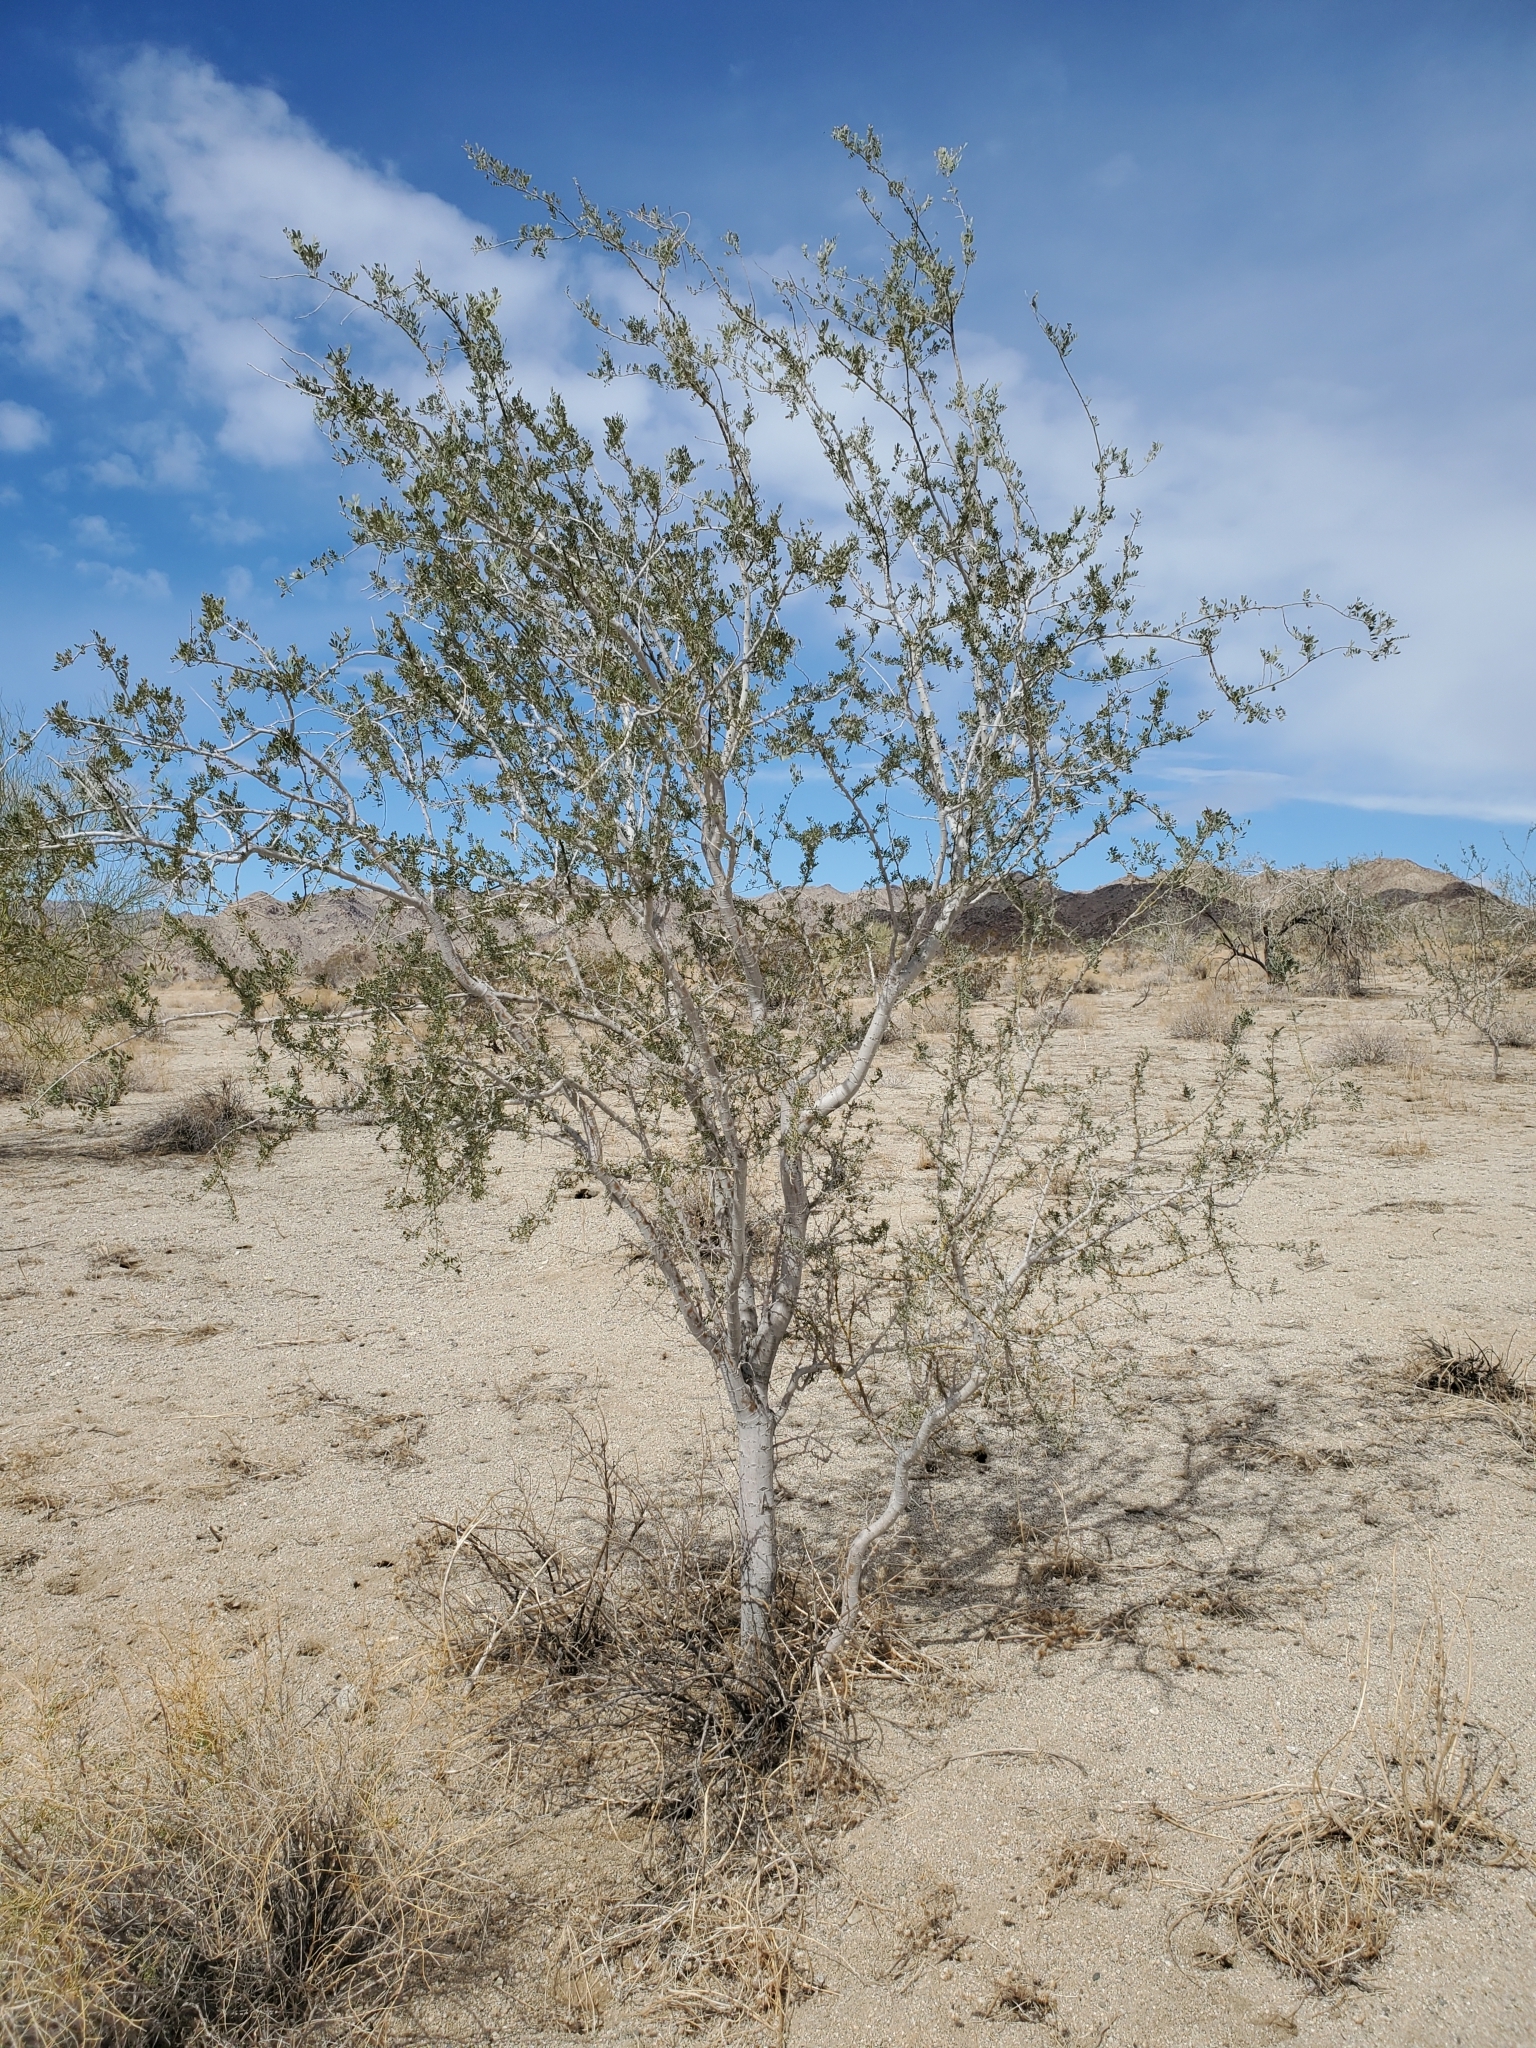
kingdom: Plantae
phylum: Tracheophyta
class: Magnoliopsida
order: Fabales
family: Fabaceae
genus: Olneya
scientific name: Olneya tesota
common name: Desert ironwood
